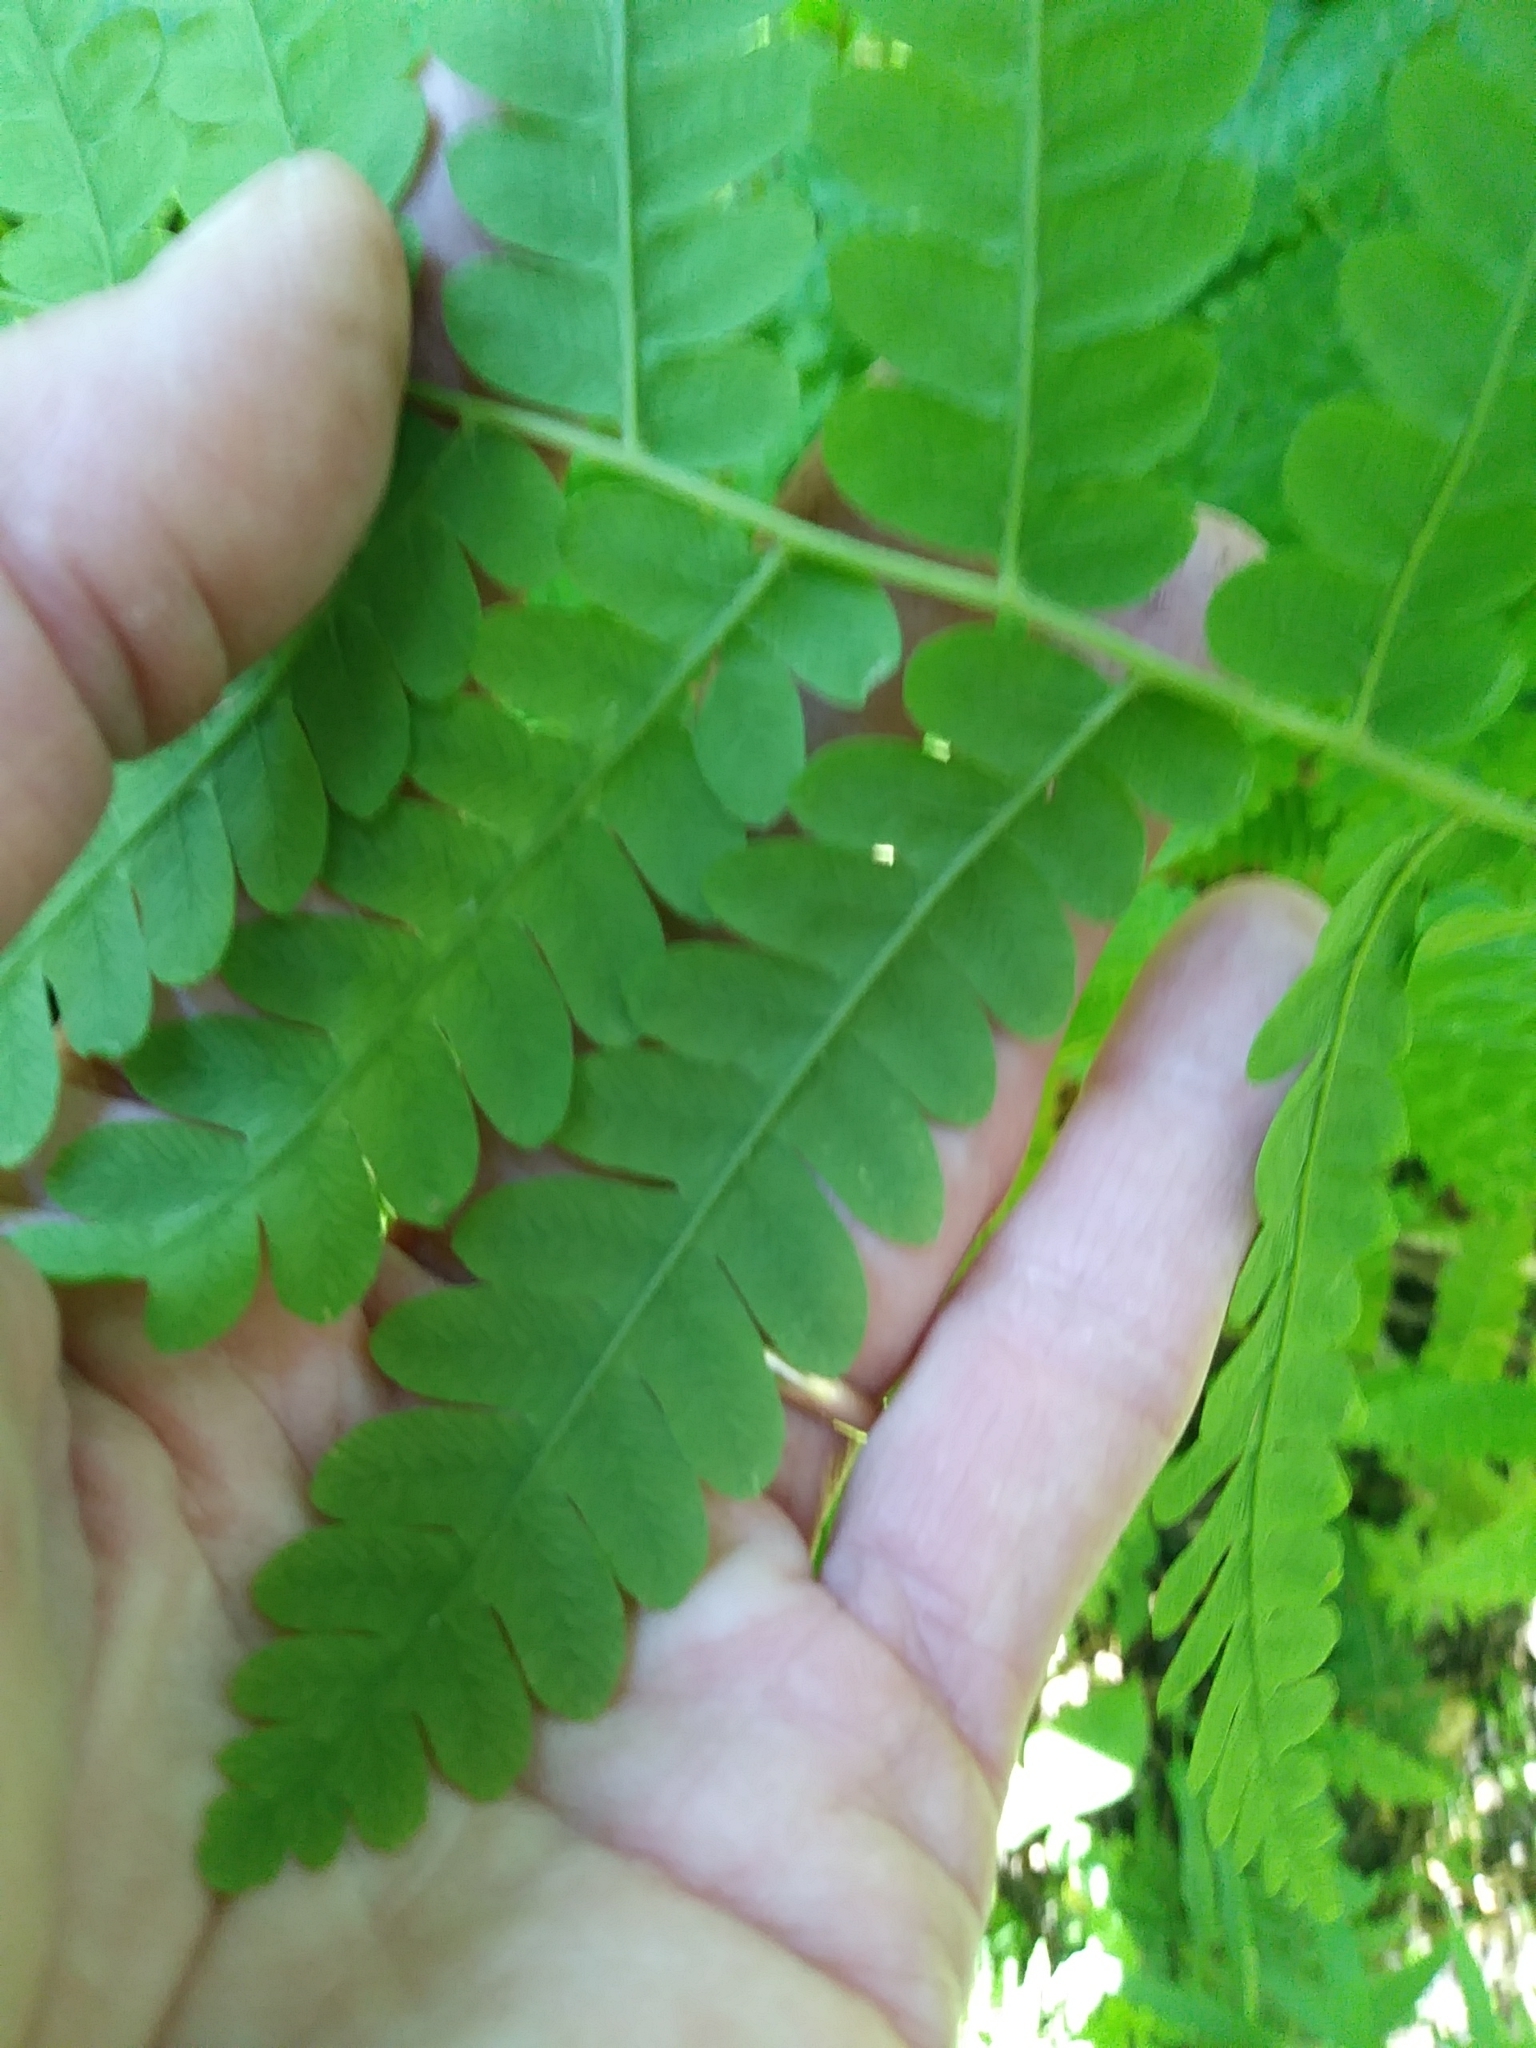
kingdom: Plantae
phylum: Tracheophyta
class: Polypodiopsida
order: Osmundales
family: Osmundaceae
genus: Claytosmunda
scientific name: Claytosmunda claytoniana
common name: Clayton's fern
